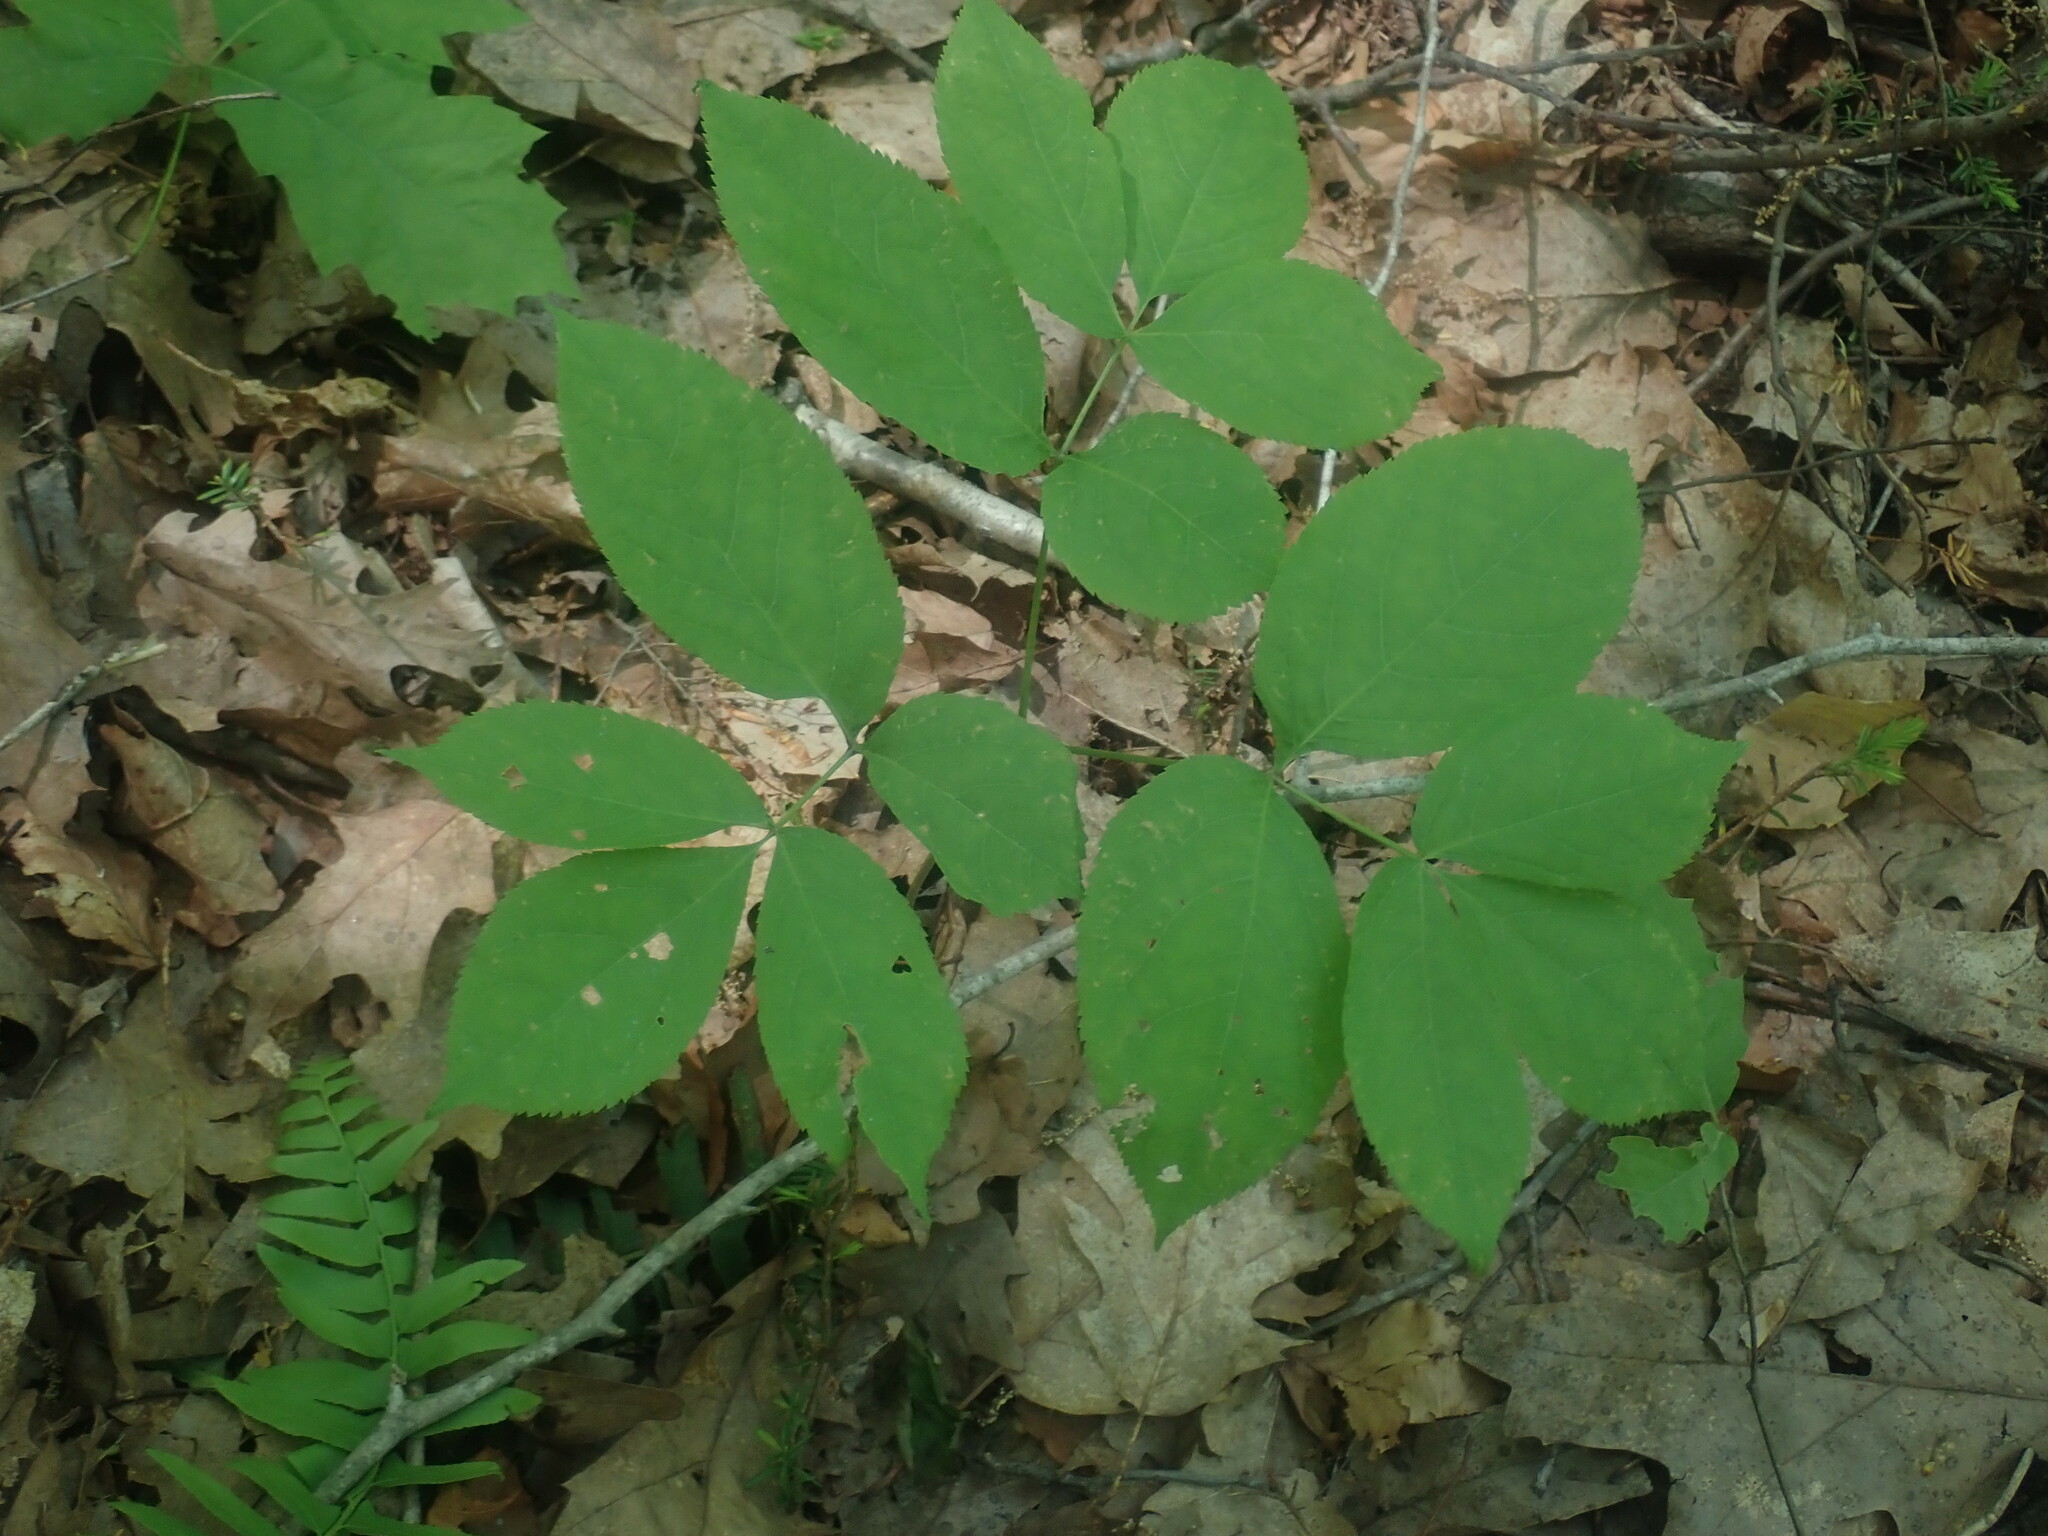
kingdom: Plantae
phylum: Tracheophyta
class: Magnoliopsida
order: Apiales
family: Araliaceae
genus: Aralia
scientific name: Aralia nudicaulis
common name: Wild sarsaparilla
